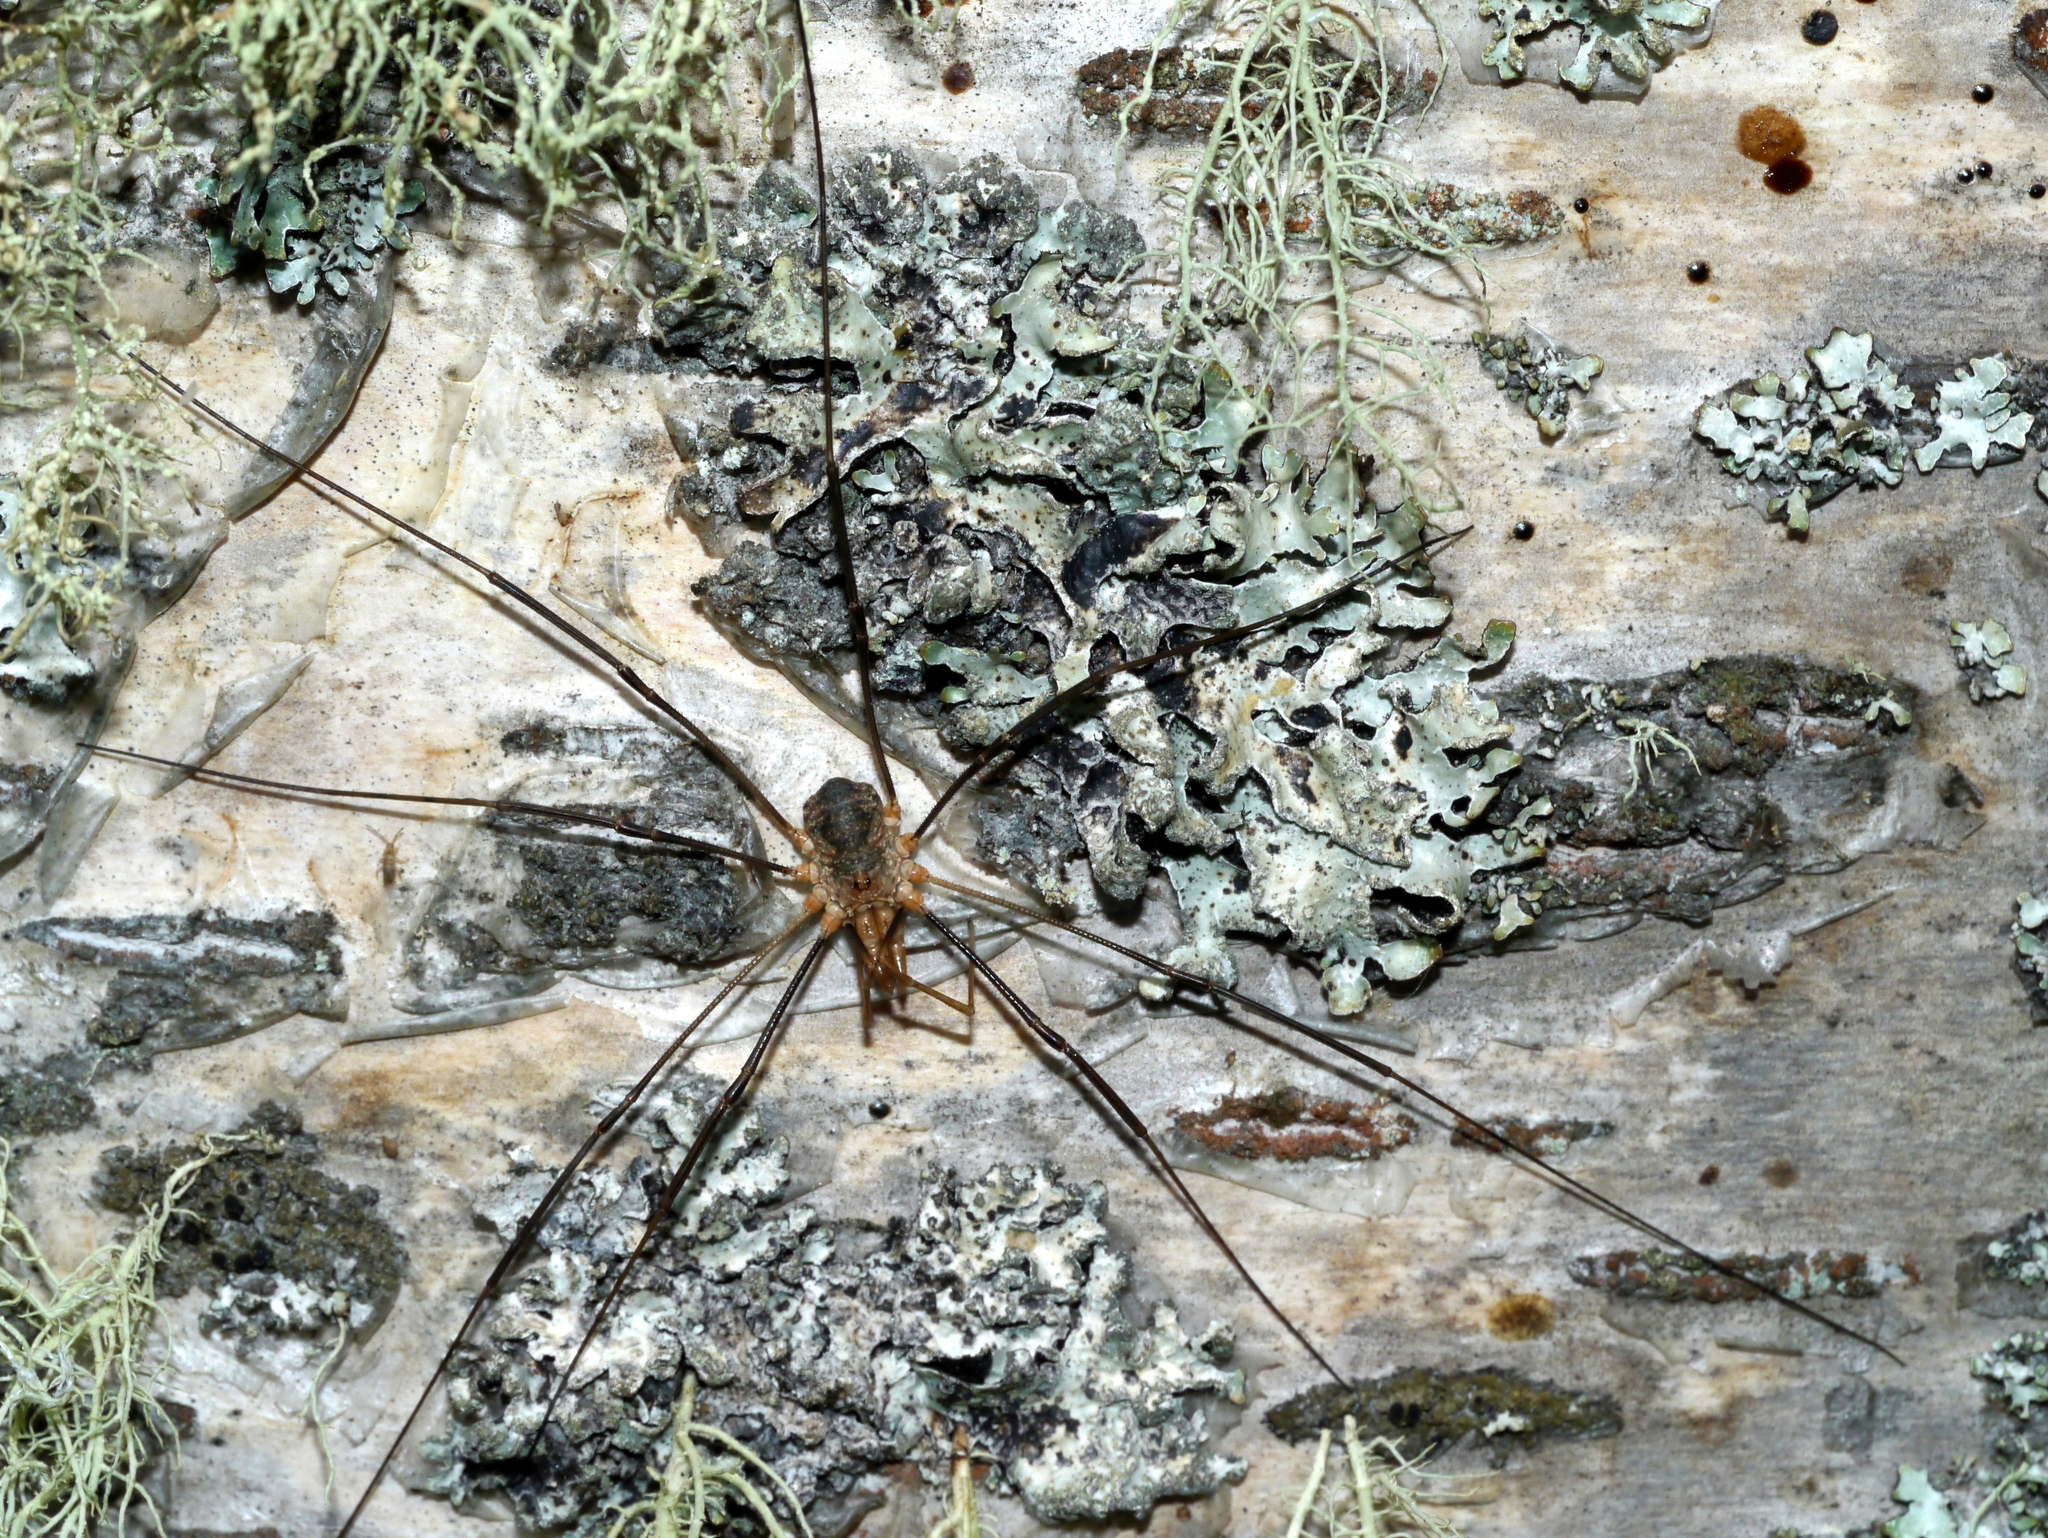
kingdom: Animalia
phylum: Arthropoda
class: Arachnida
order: Opiliones
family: Phalangiidae
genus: Phalangium
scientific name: Phalangium opilio
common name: Daddy longleg
